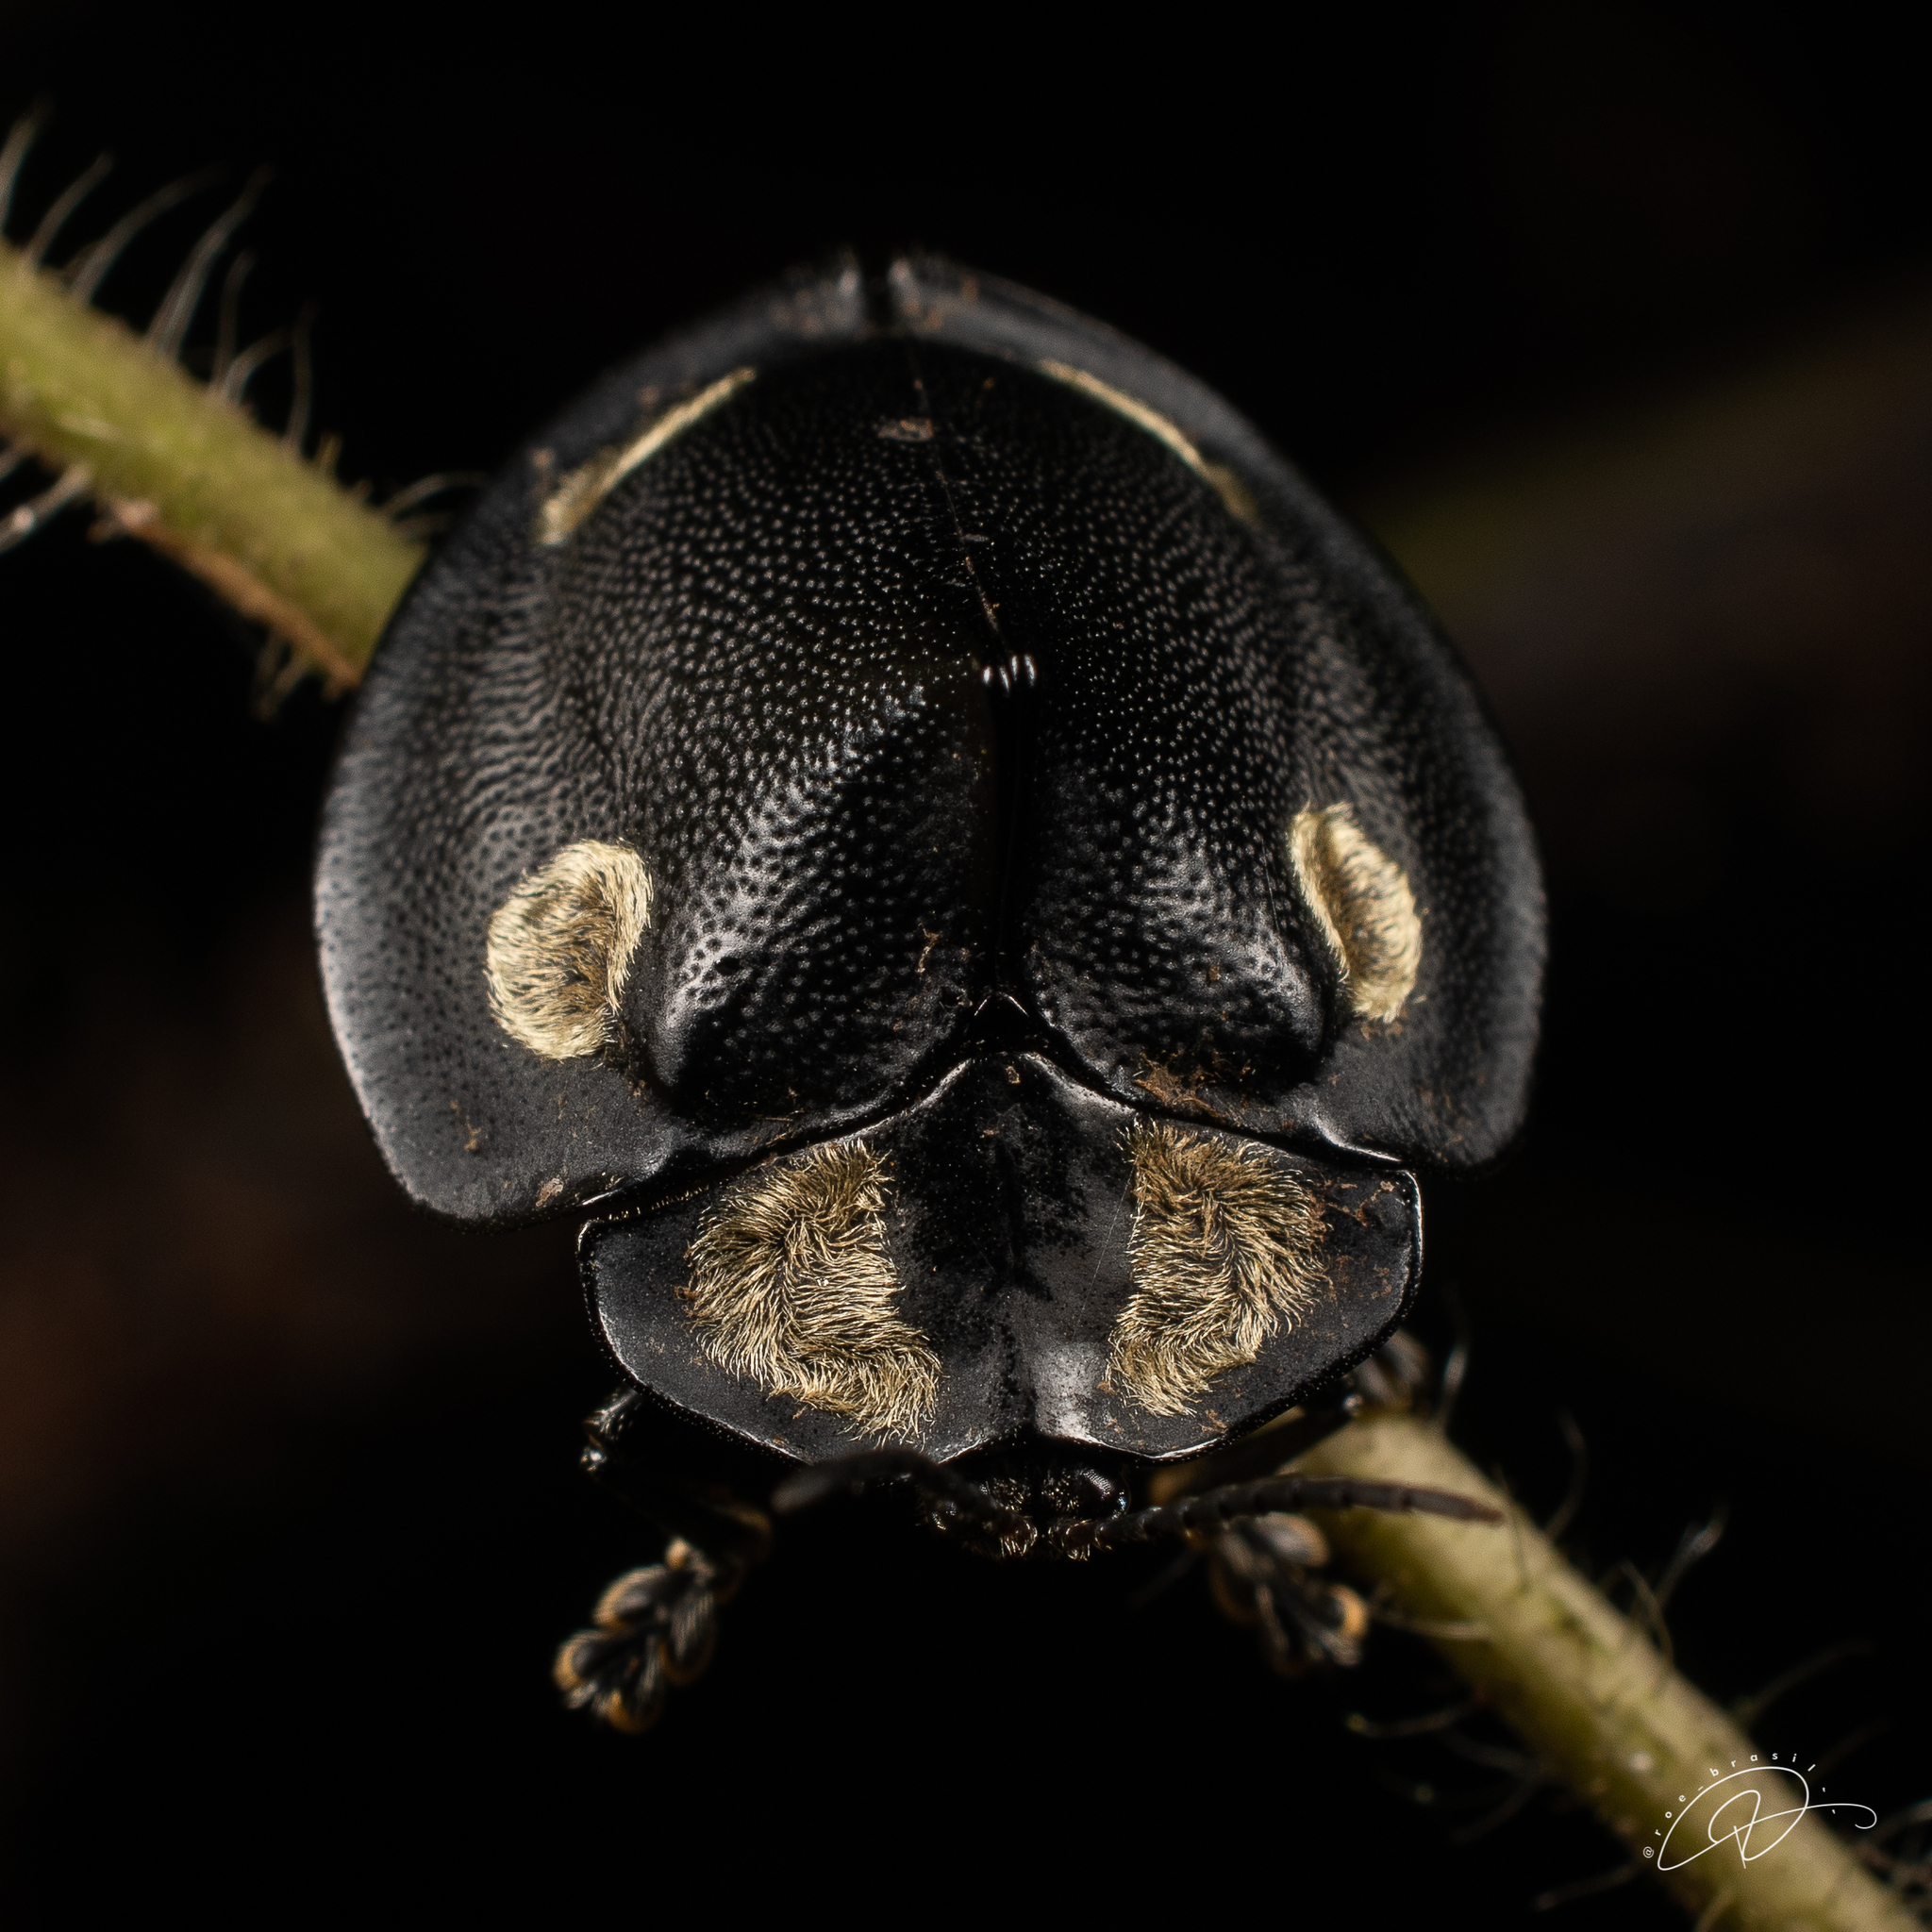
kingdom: Animalia
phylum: Arthropoda
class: Insecta
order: Coleoptera
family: Chrysomelidae
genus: Mesomphalia
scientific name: Mesomphalia turrita
